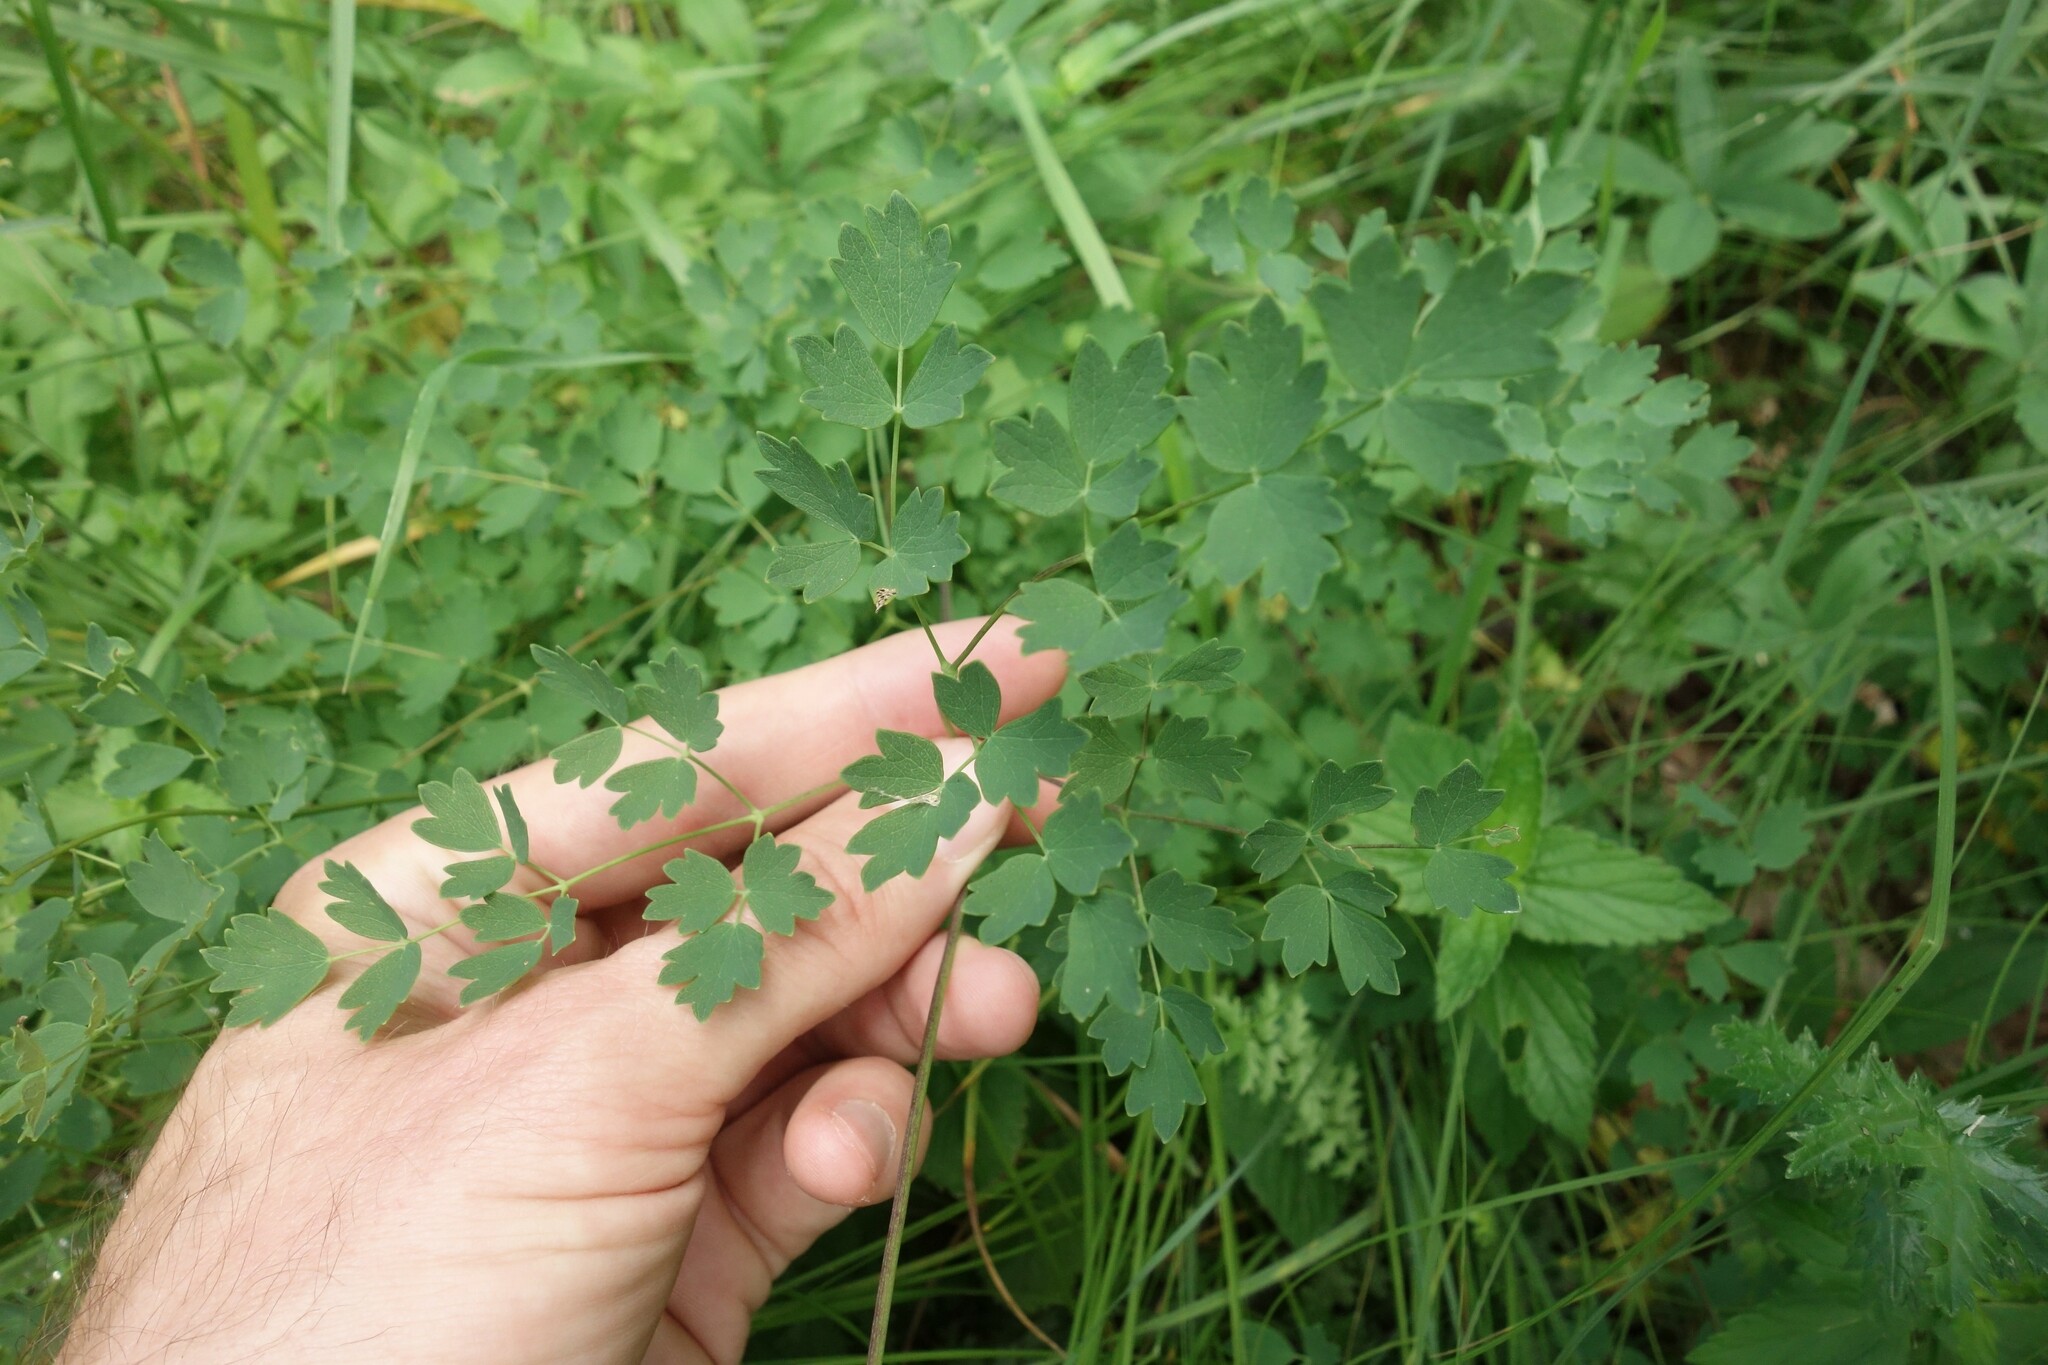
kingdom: Plantae
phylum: Tracheophyta
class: Magnoliopsida
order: Ranunculales
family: Ranunculaceae
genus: Thalictrum
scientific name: Thalictrum minus
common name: Lesser meadow-rue
